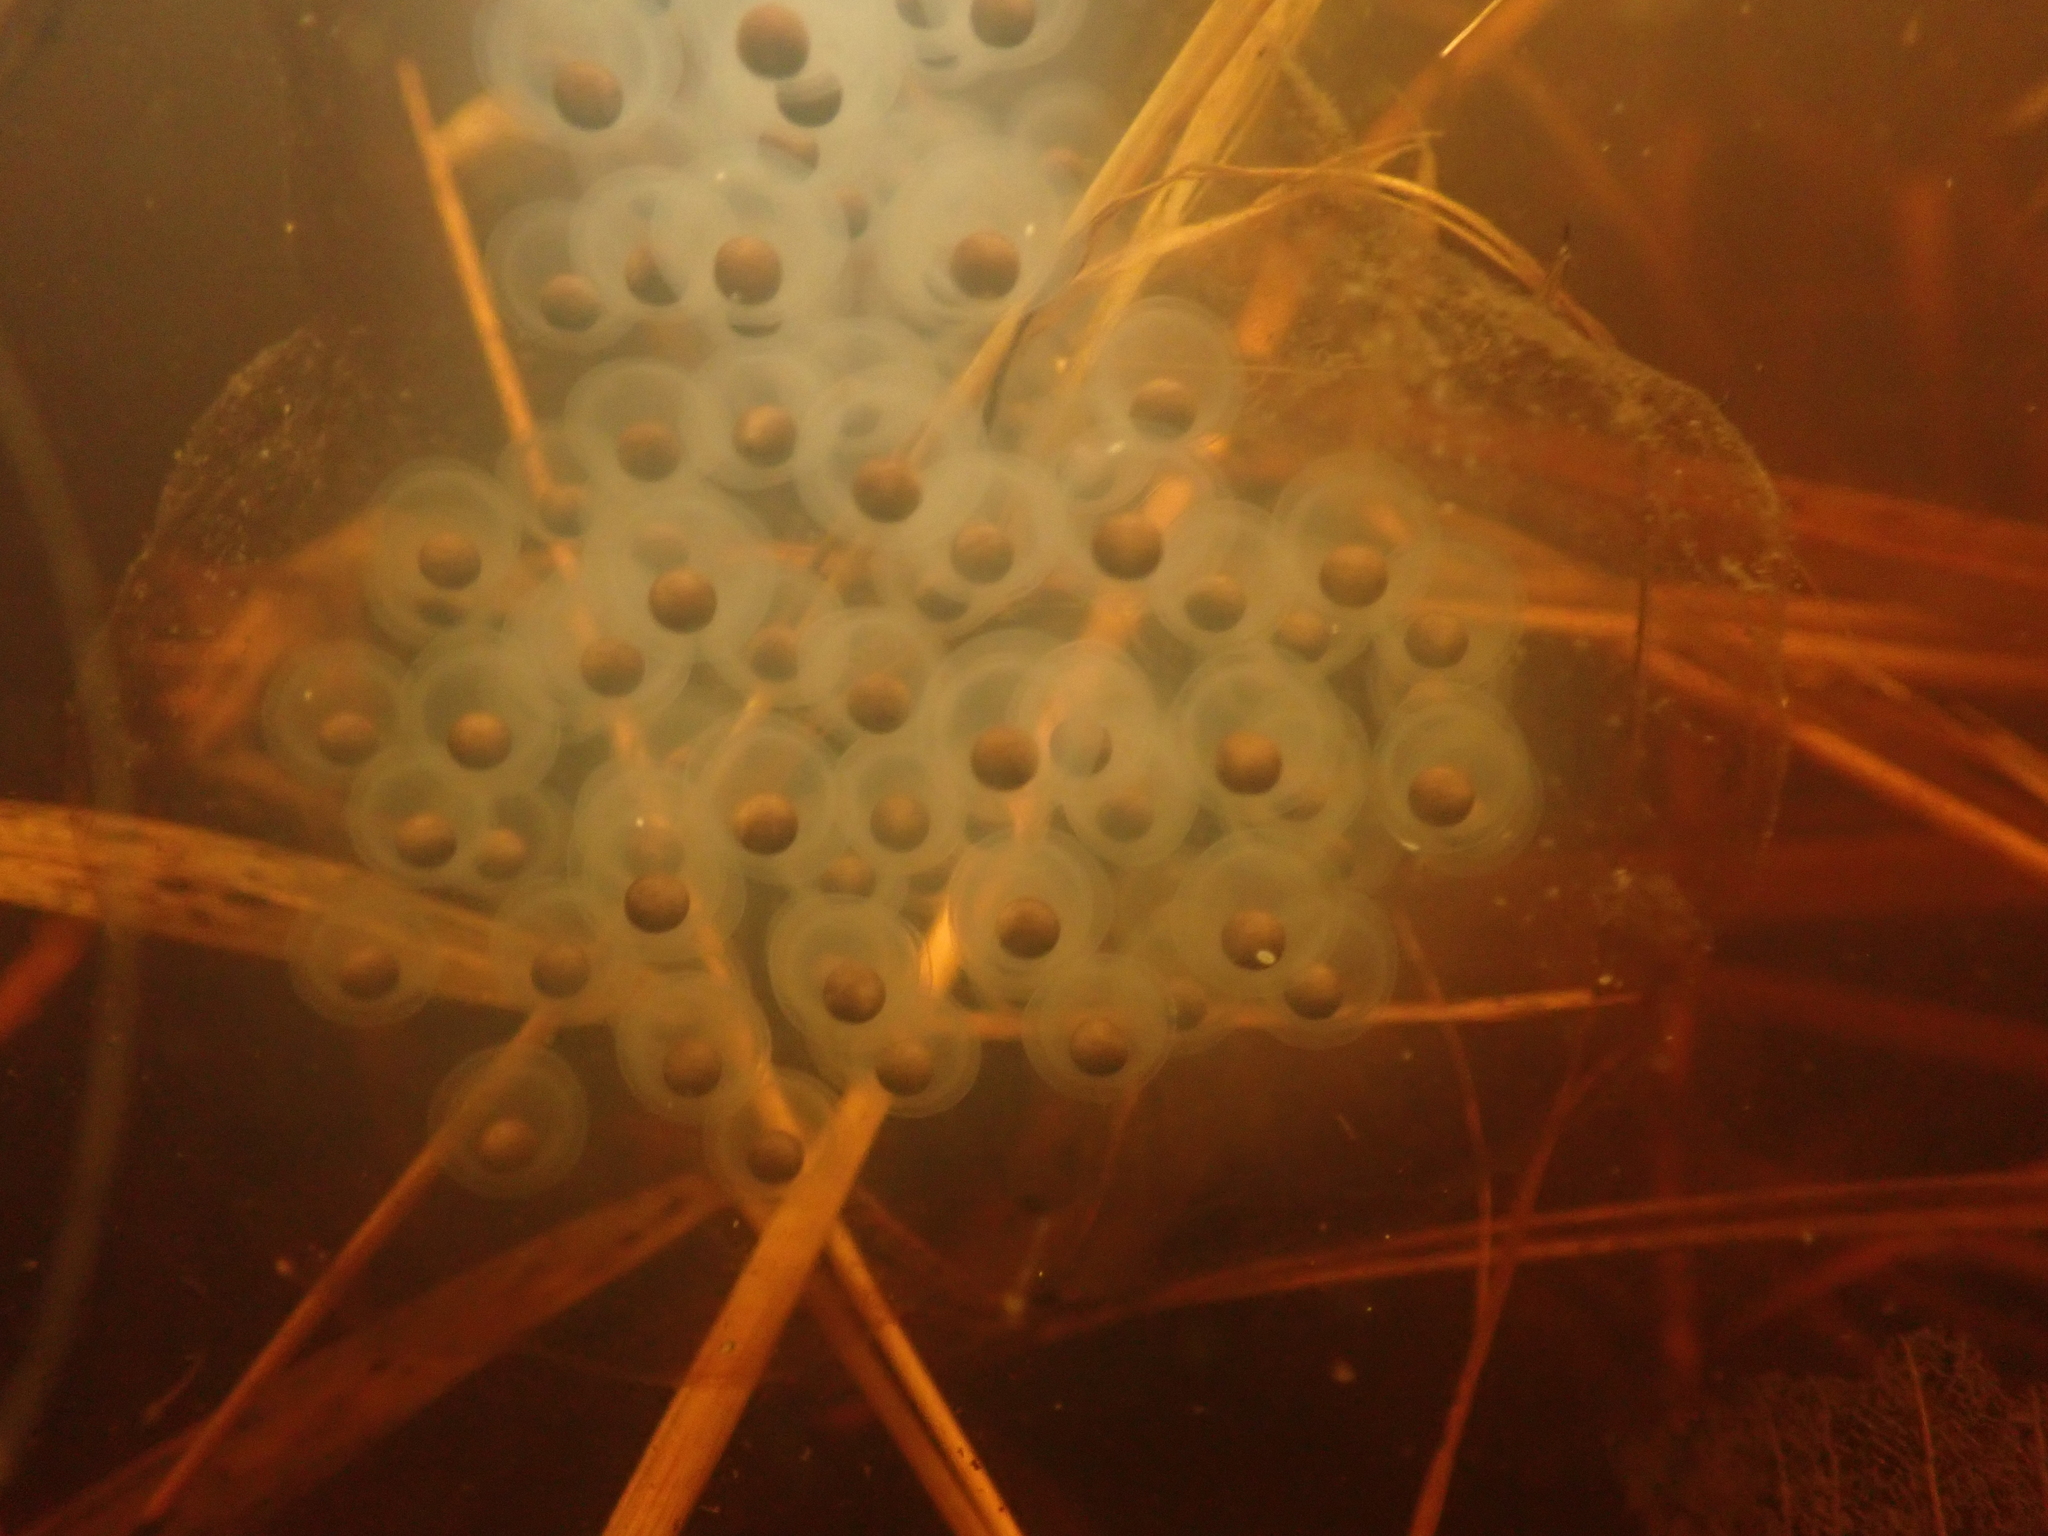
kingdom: Animalia
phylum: Chordata
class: Amphibia
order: Caudata
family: Ambystomatidae
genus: Ambystoma
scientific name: Ambystoma maculatum
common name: Spotted salamander
